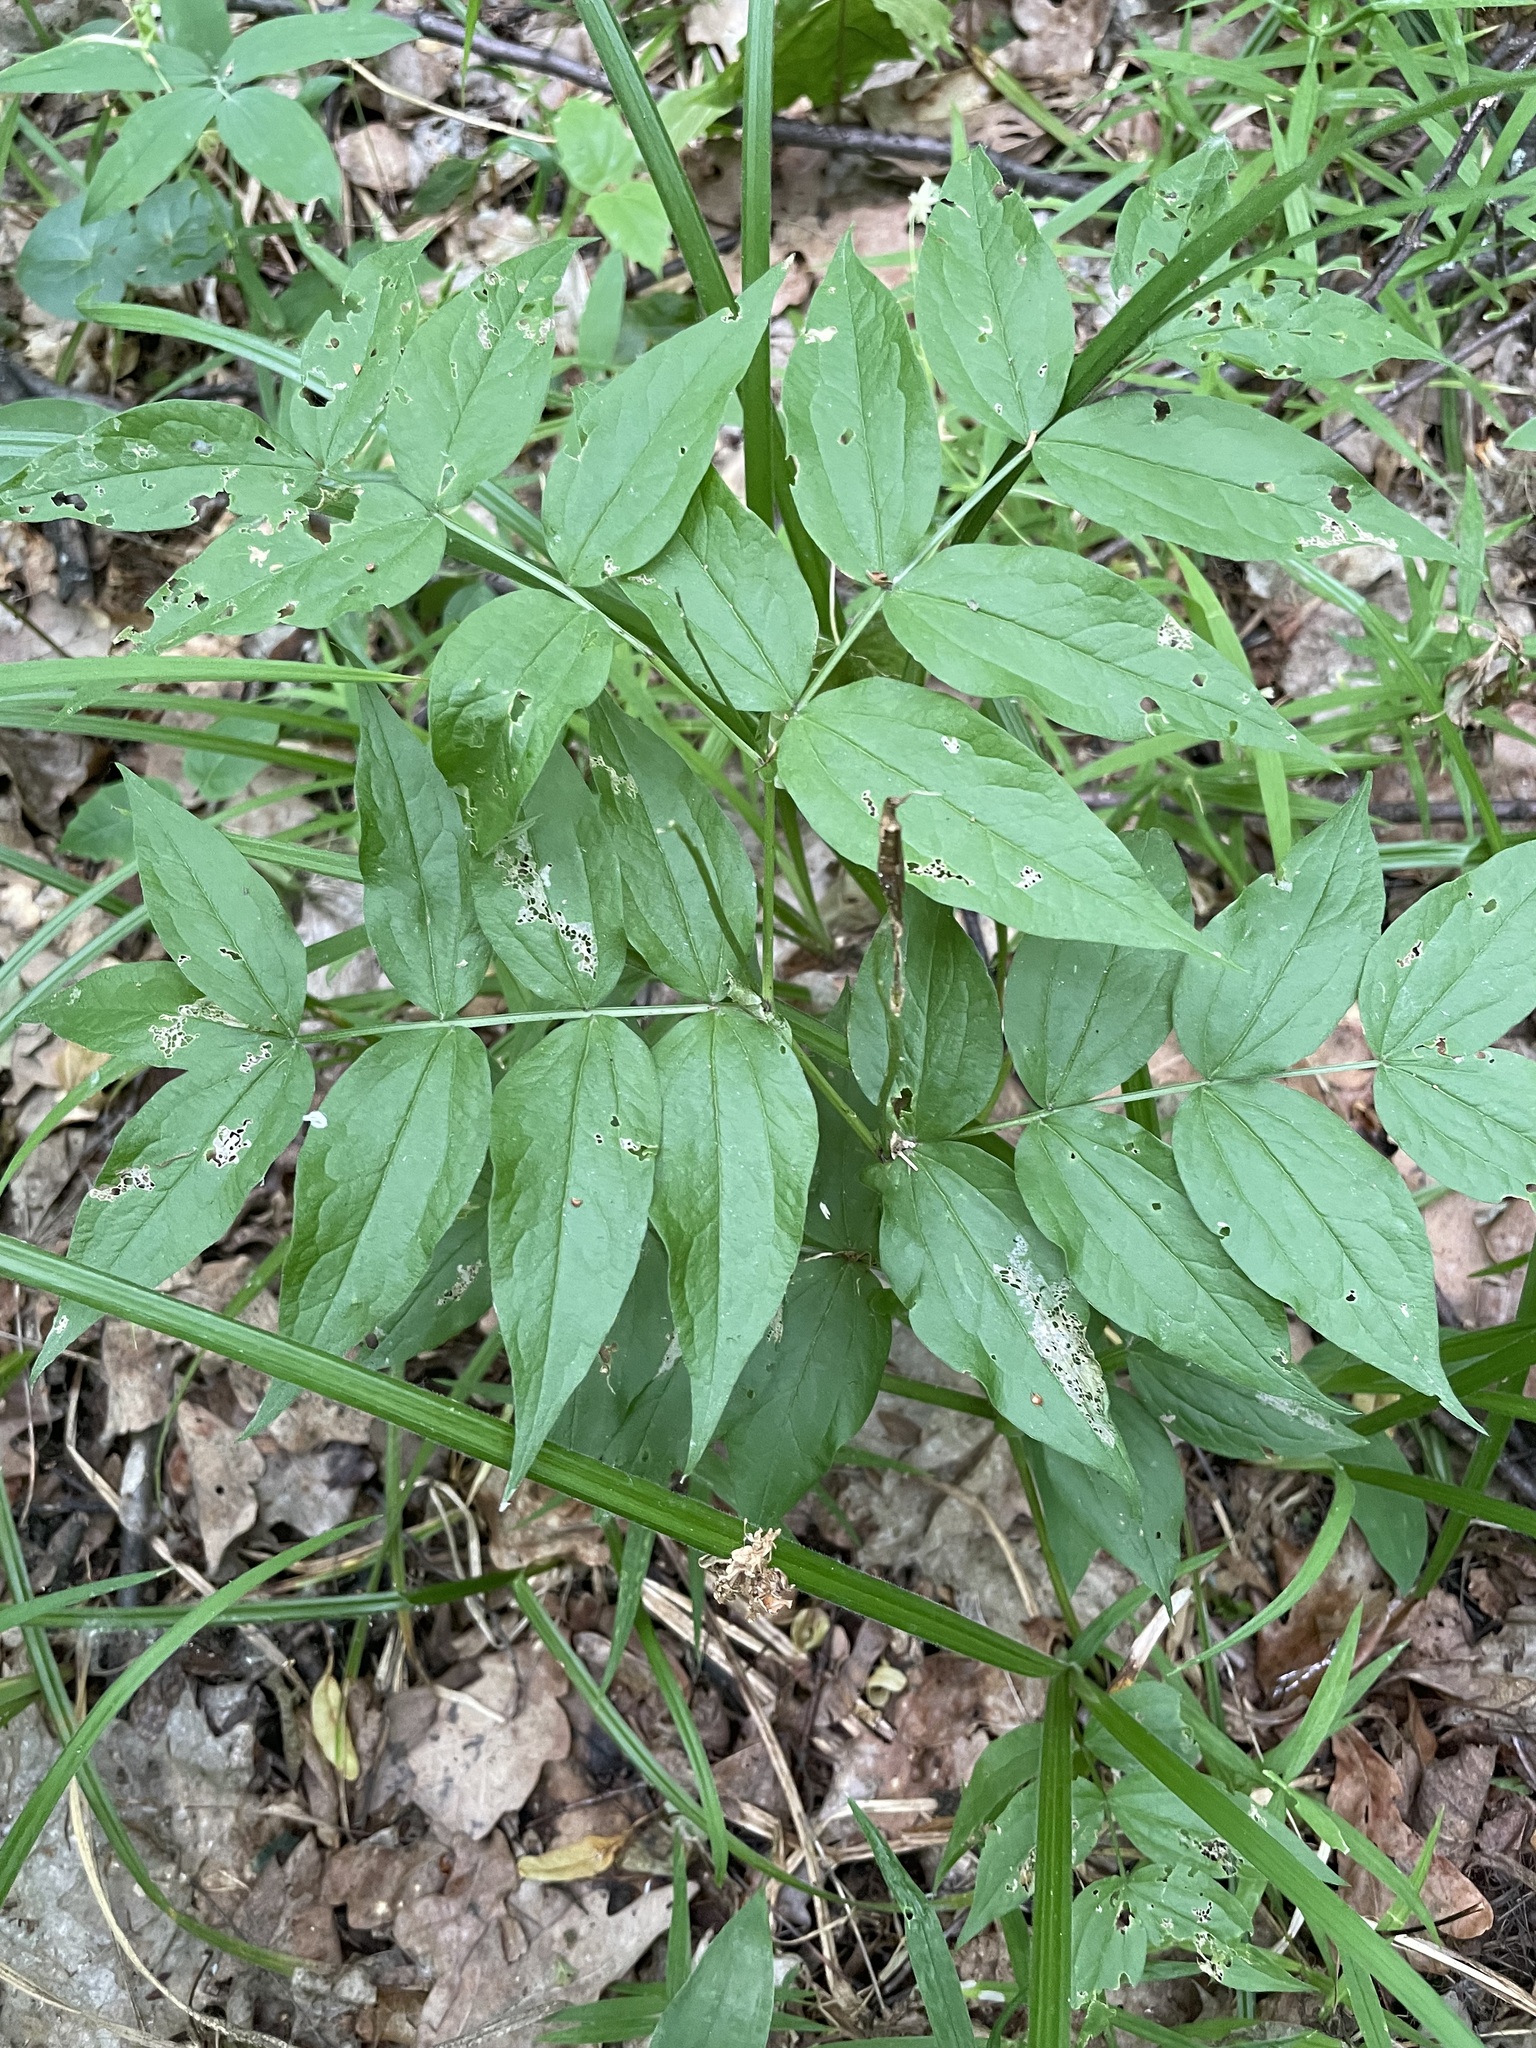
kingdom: Plantae
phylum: Tracheophyta
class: Magnoliopsida
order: Fabales
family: Fabaceae
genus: Lathyrus
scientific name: Lathyrus vernus
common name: Spring pea
